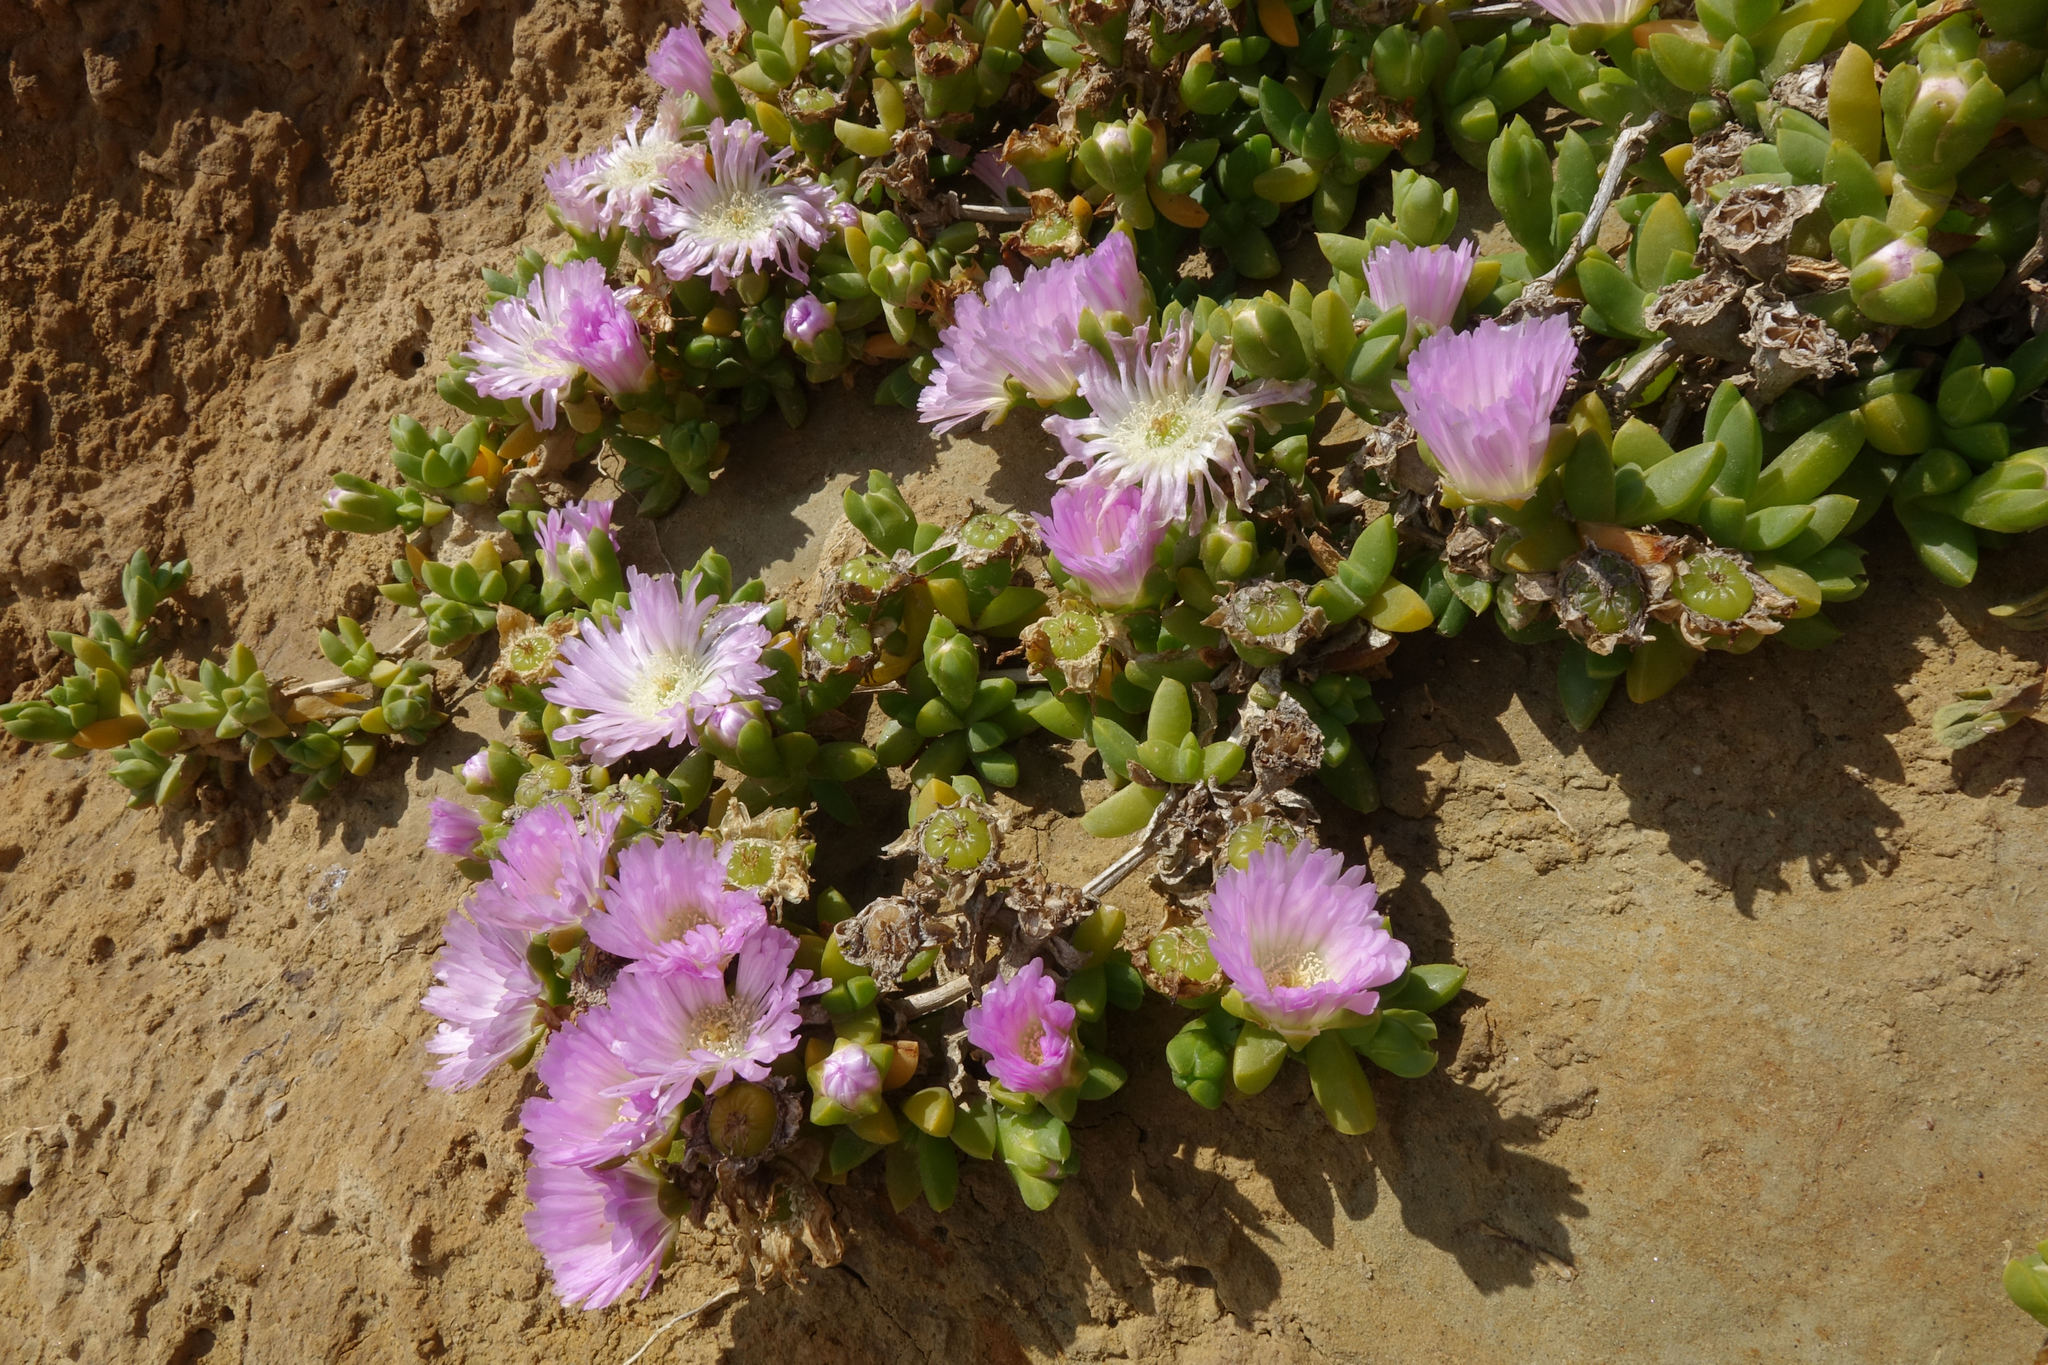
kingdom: Plantae
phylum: Tracheophyta
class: Magnoliopsida
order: Caryophyllales
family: Aizoaceae
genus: Disphyma
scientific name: Disphyma australe
